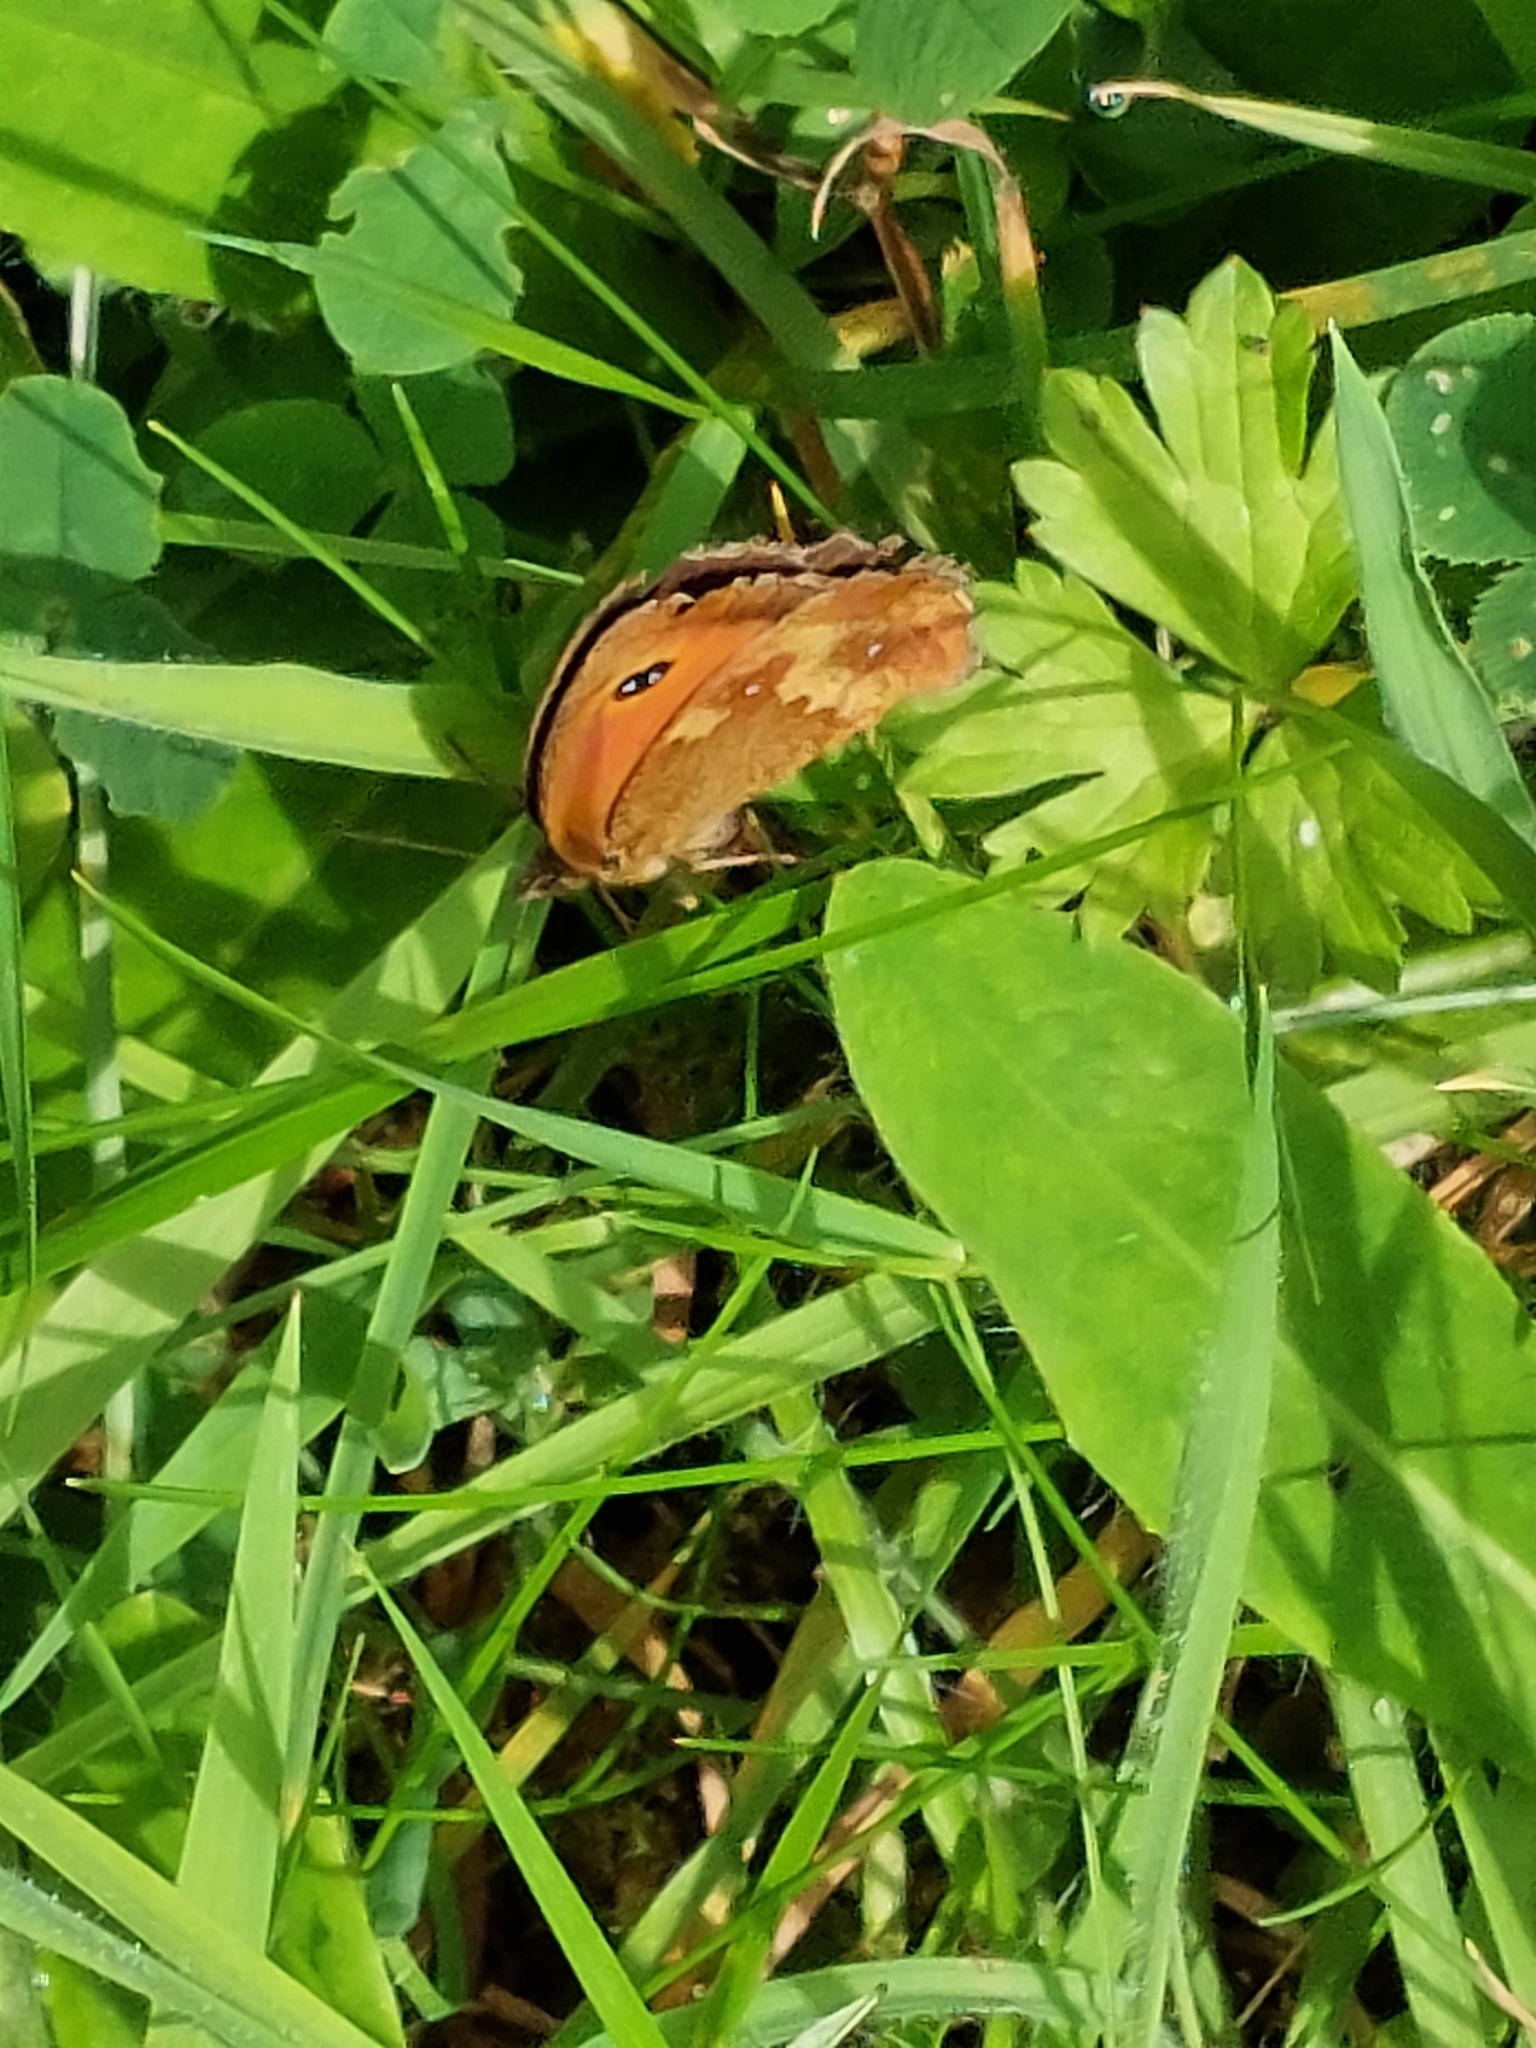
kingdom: Animalia
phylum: Arthropoda
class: Insecta
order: Lepidoptera
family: Nymphalidae
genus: Pyronia
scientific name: Pyronia tithonus
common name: Gatekeeper
